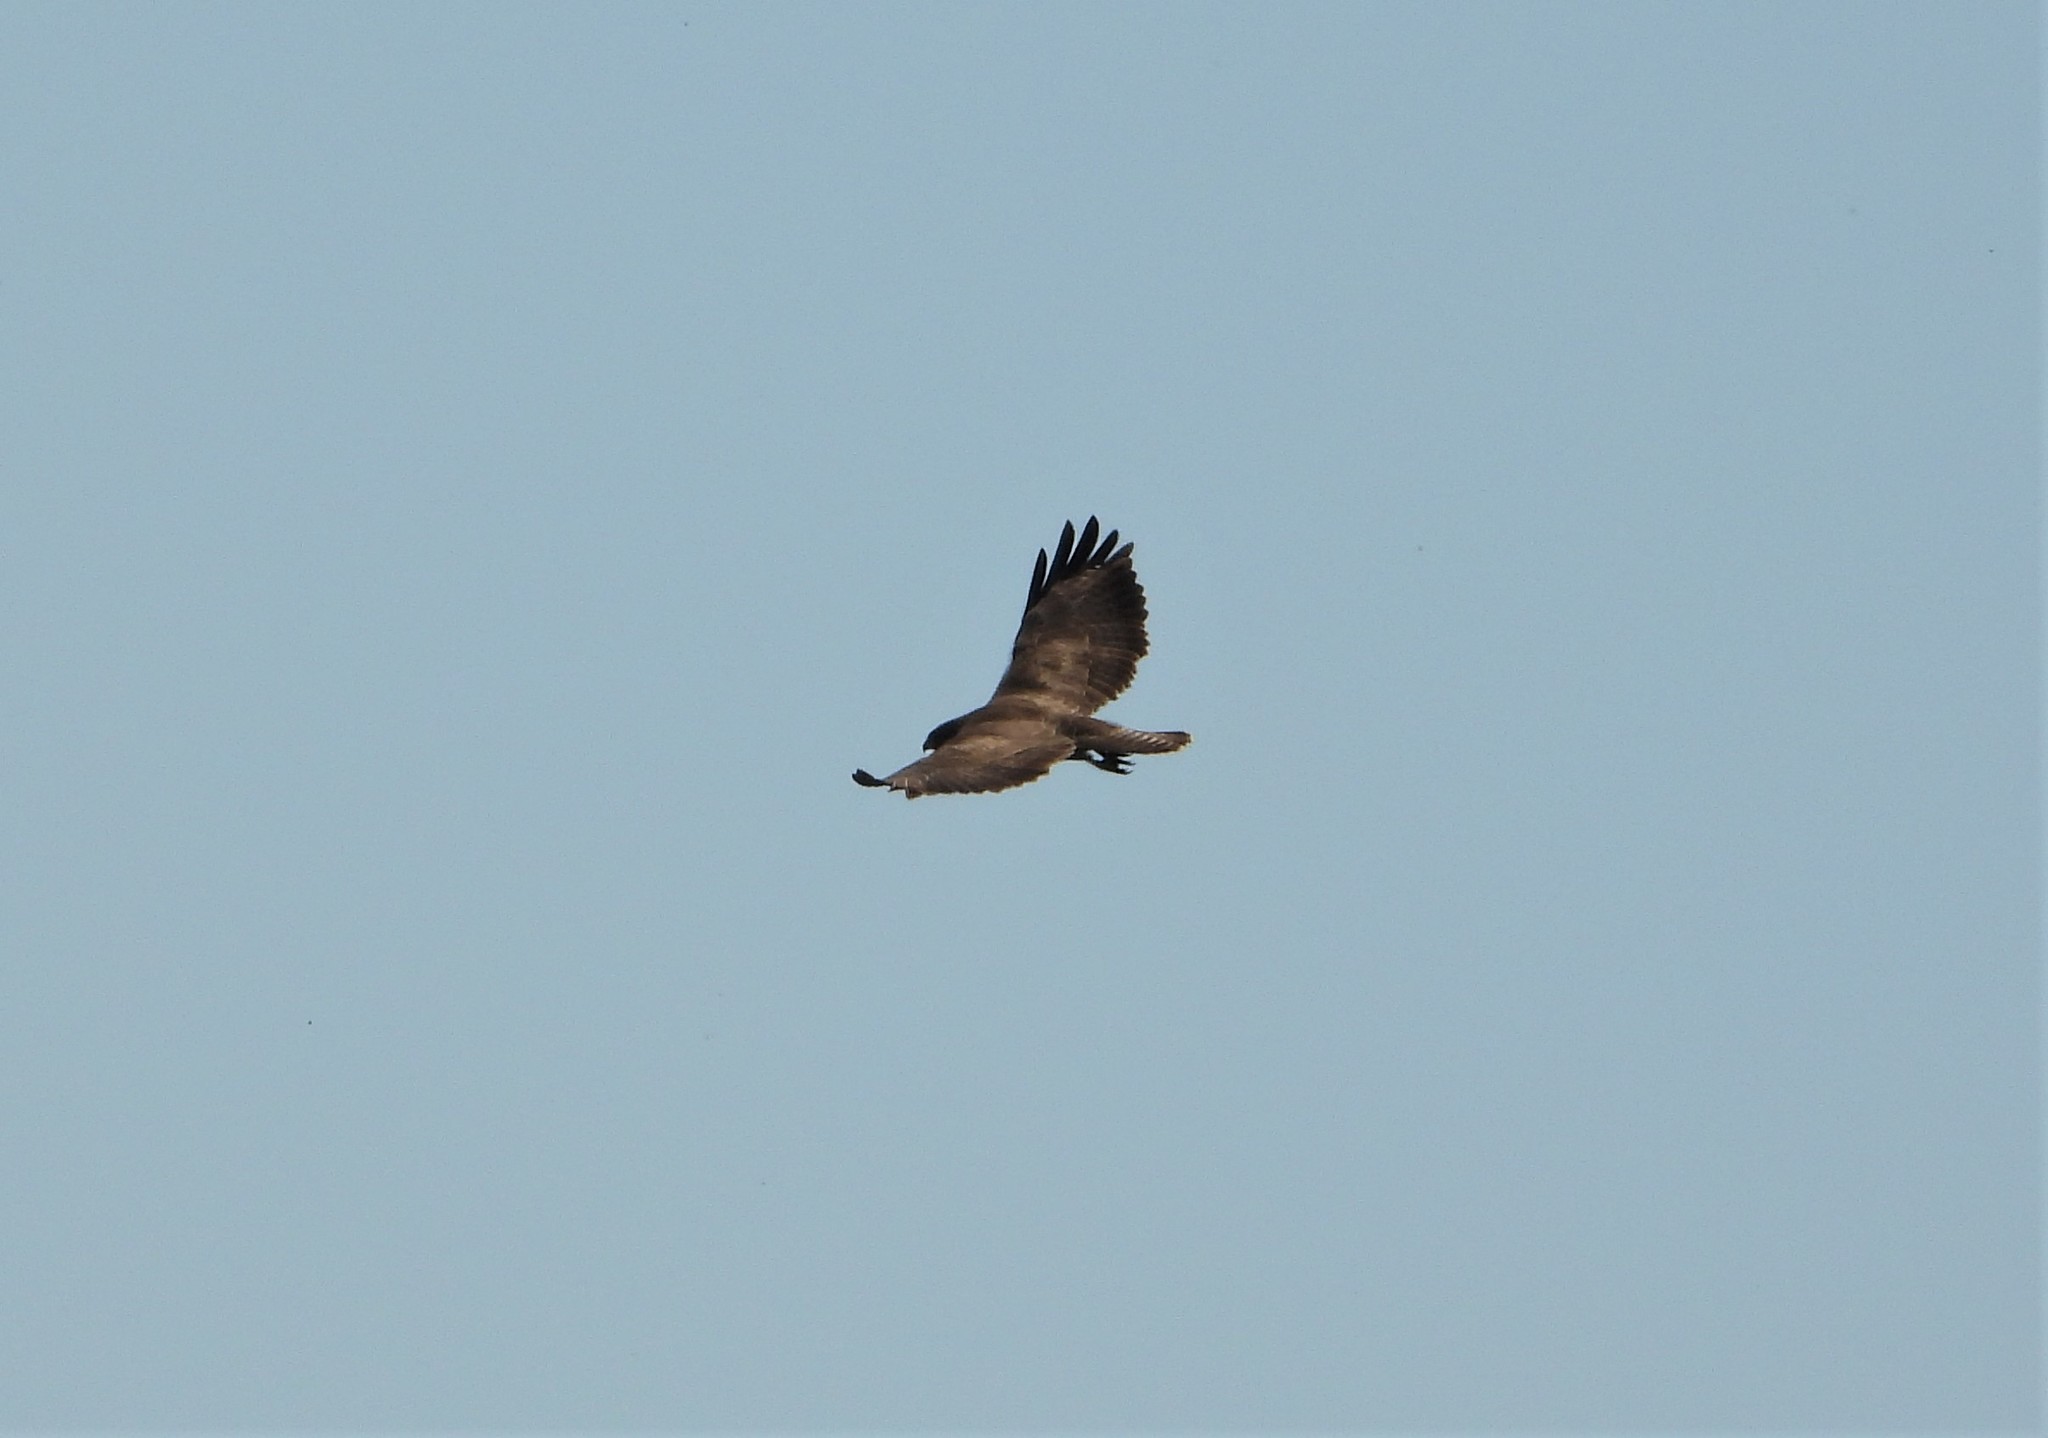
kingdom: Animalia
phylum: Chordata
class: Aves
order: Accipitriformes
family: Accipitridae
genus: Buteo
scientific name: Buteo buteo
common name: Common buzzard
